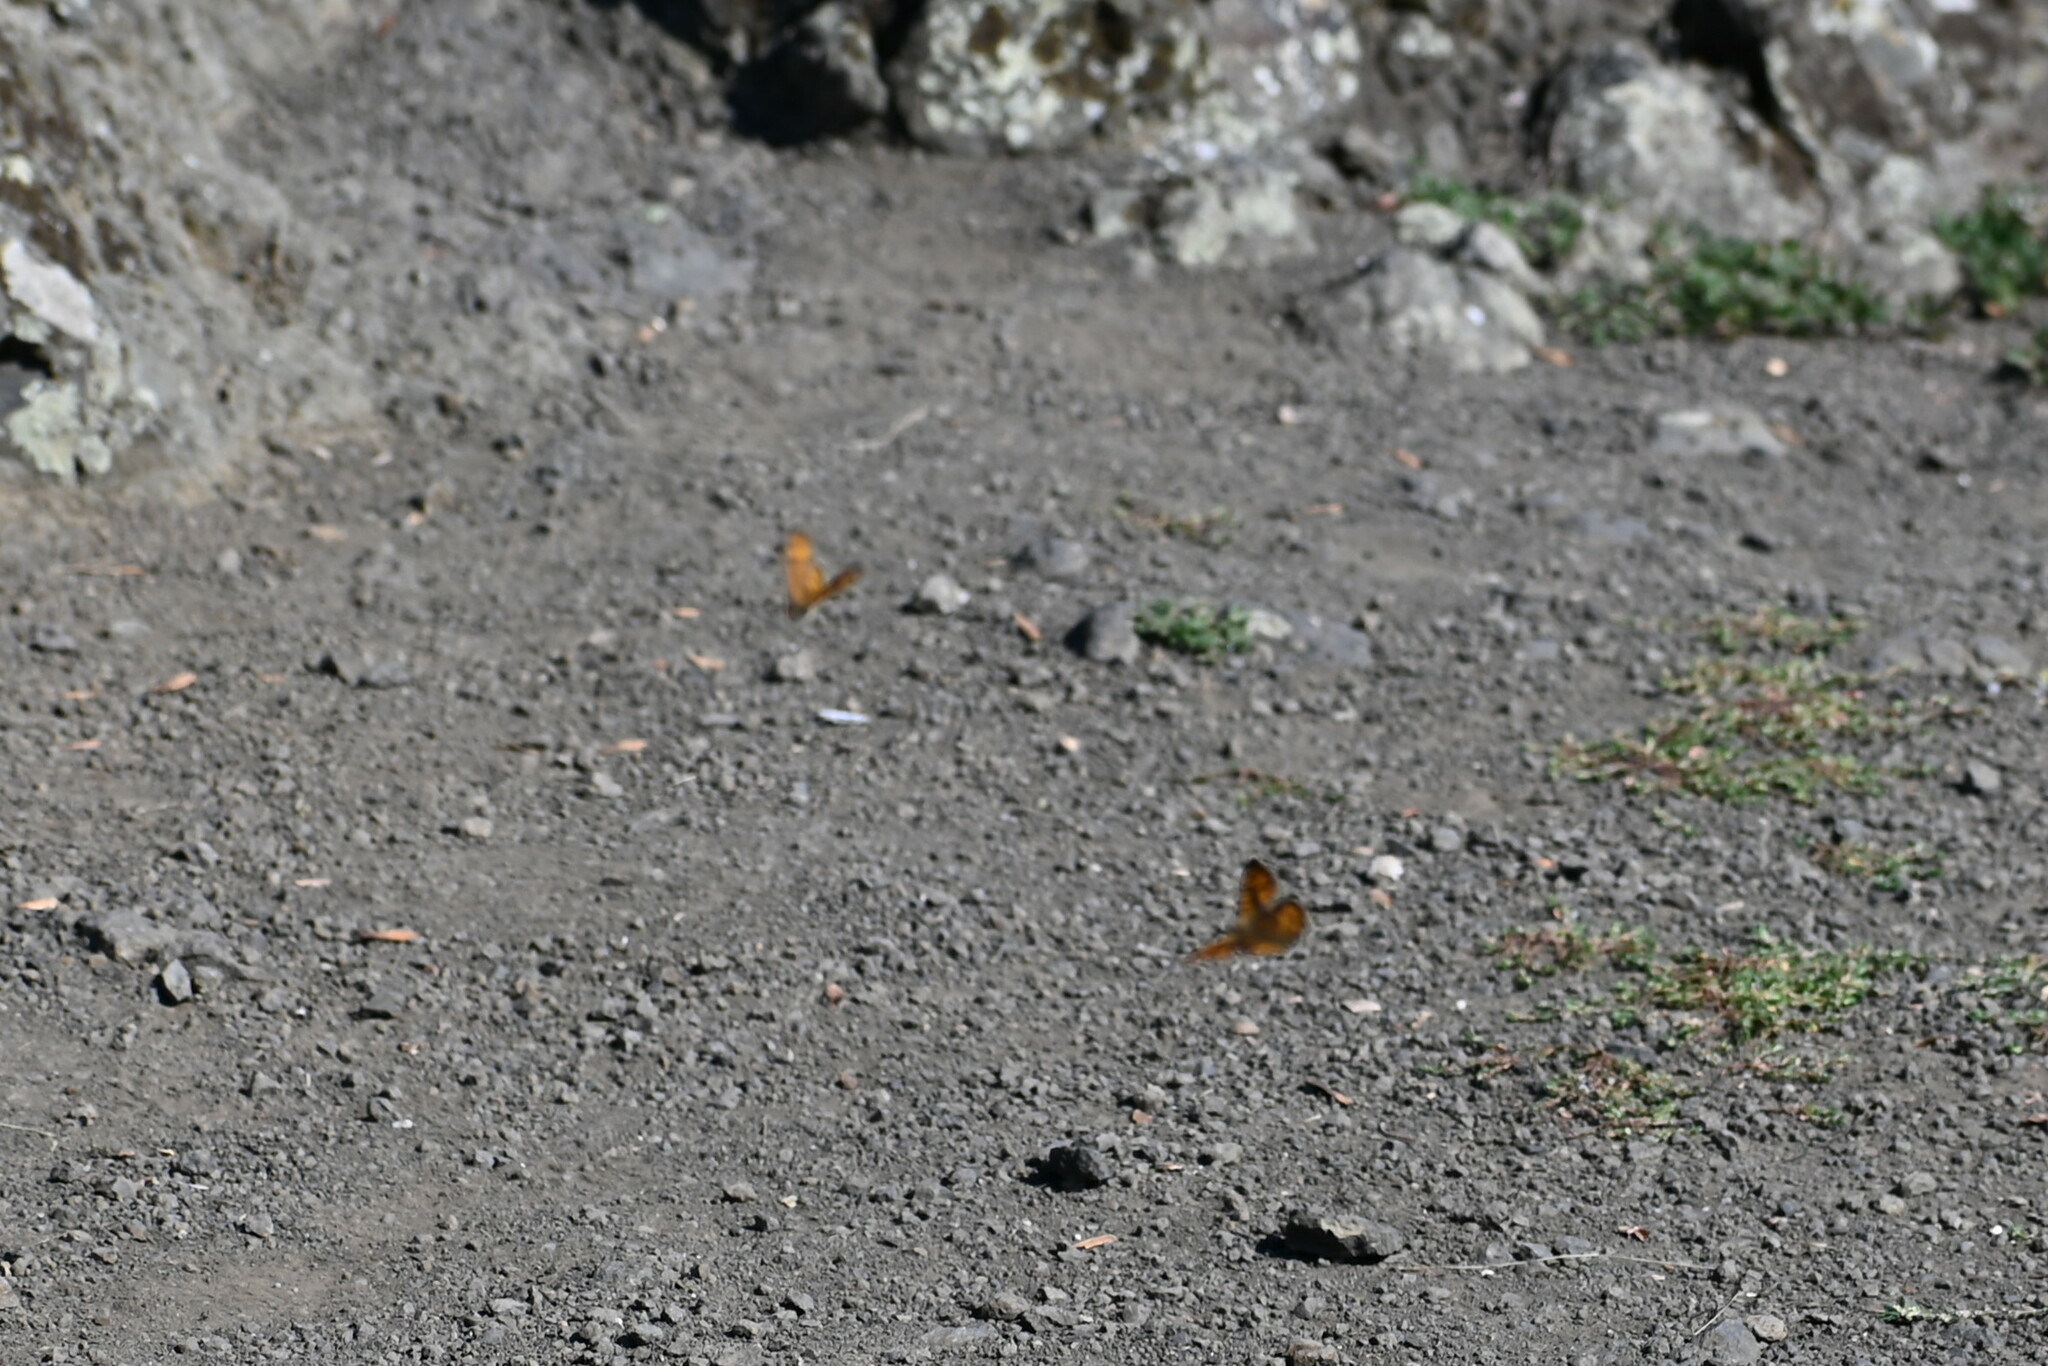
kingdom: Animalia
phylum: Arthropoda
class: Insecta
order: Lepidoptera
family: Nymphalidae
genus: Pararge
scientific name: Pararge Lasiommata megera
